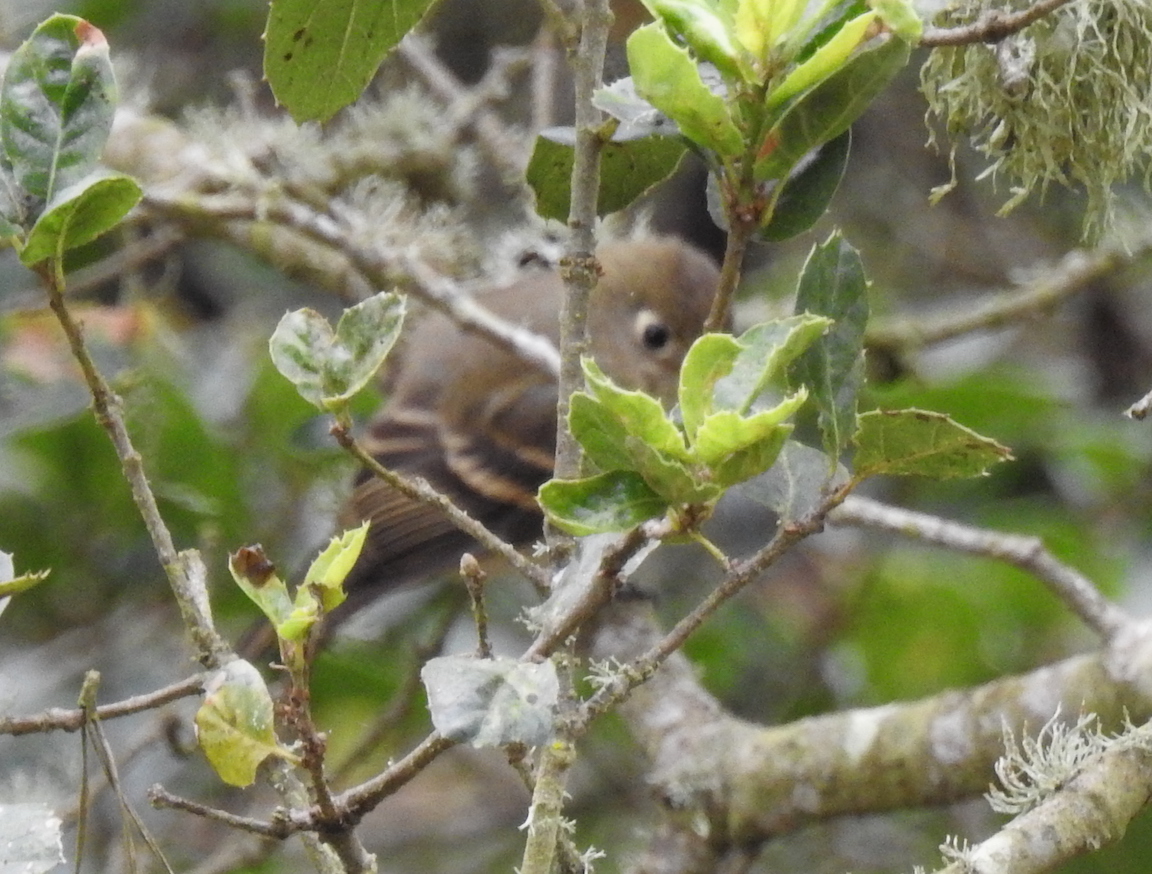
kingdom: Animalia
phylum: Chordata
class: Aves
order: Passeriformes
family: Tyrannidae
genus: Empidonax
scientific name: Empidonax difficilis
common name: Pacific-slope flycatcher
